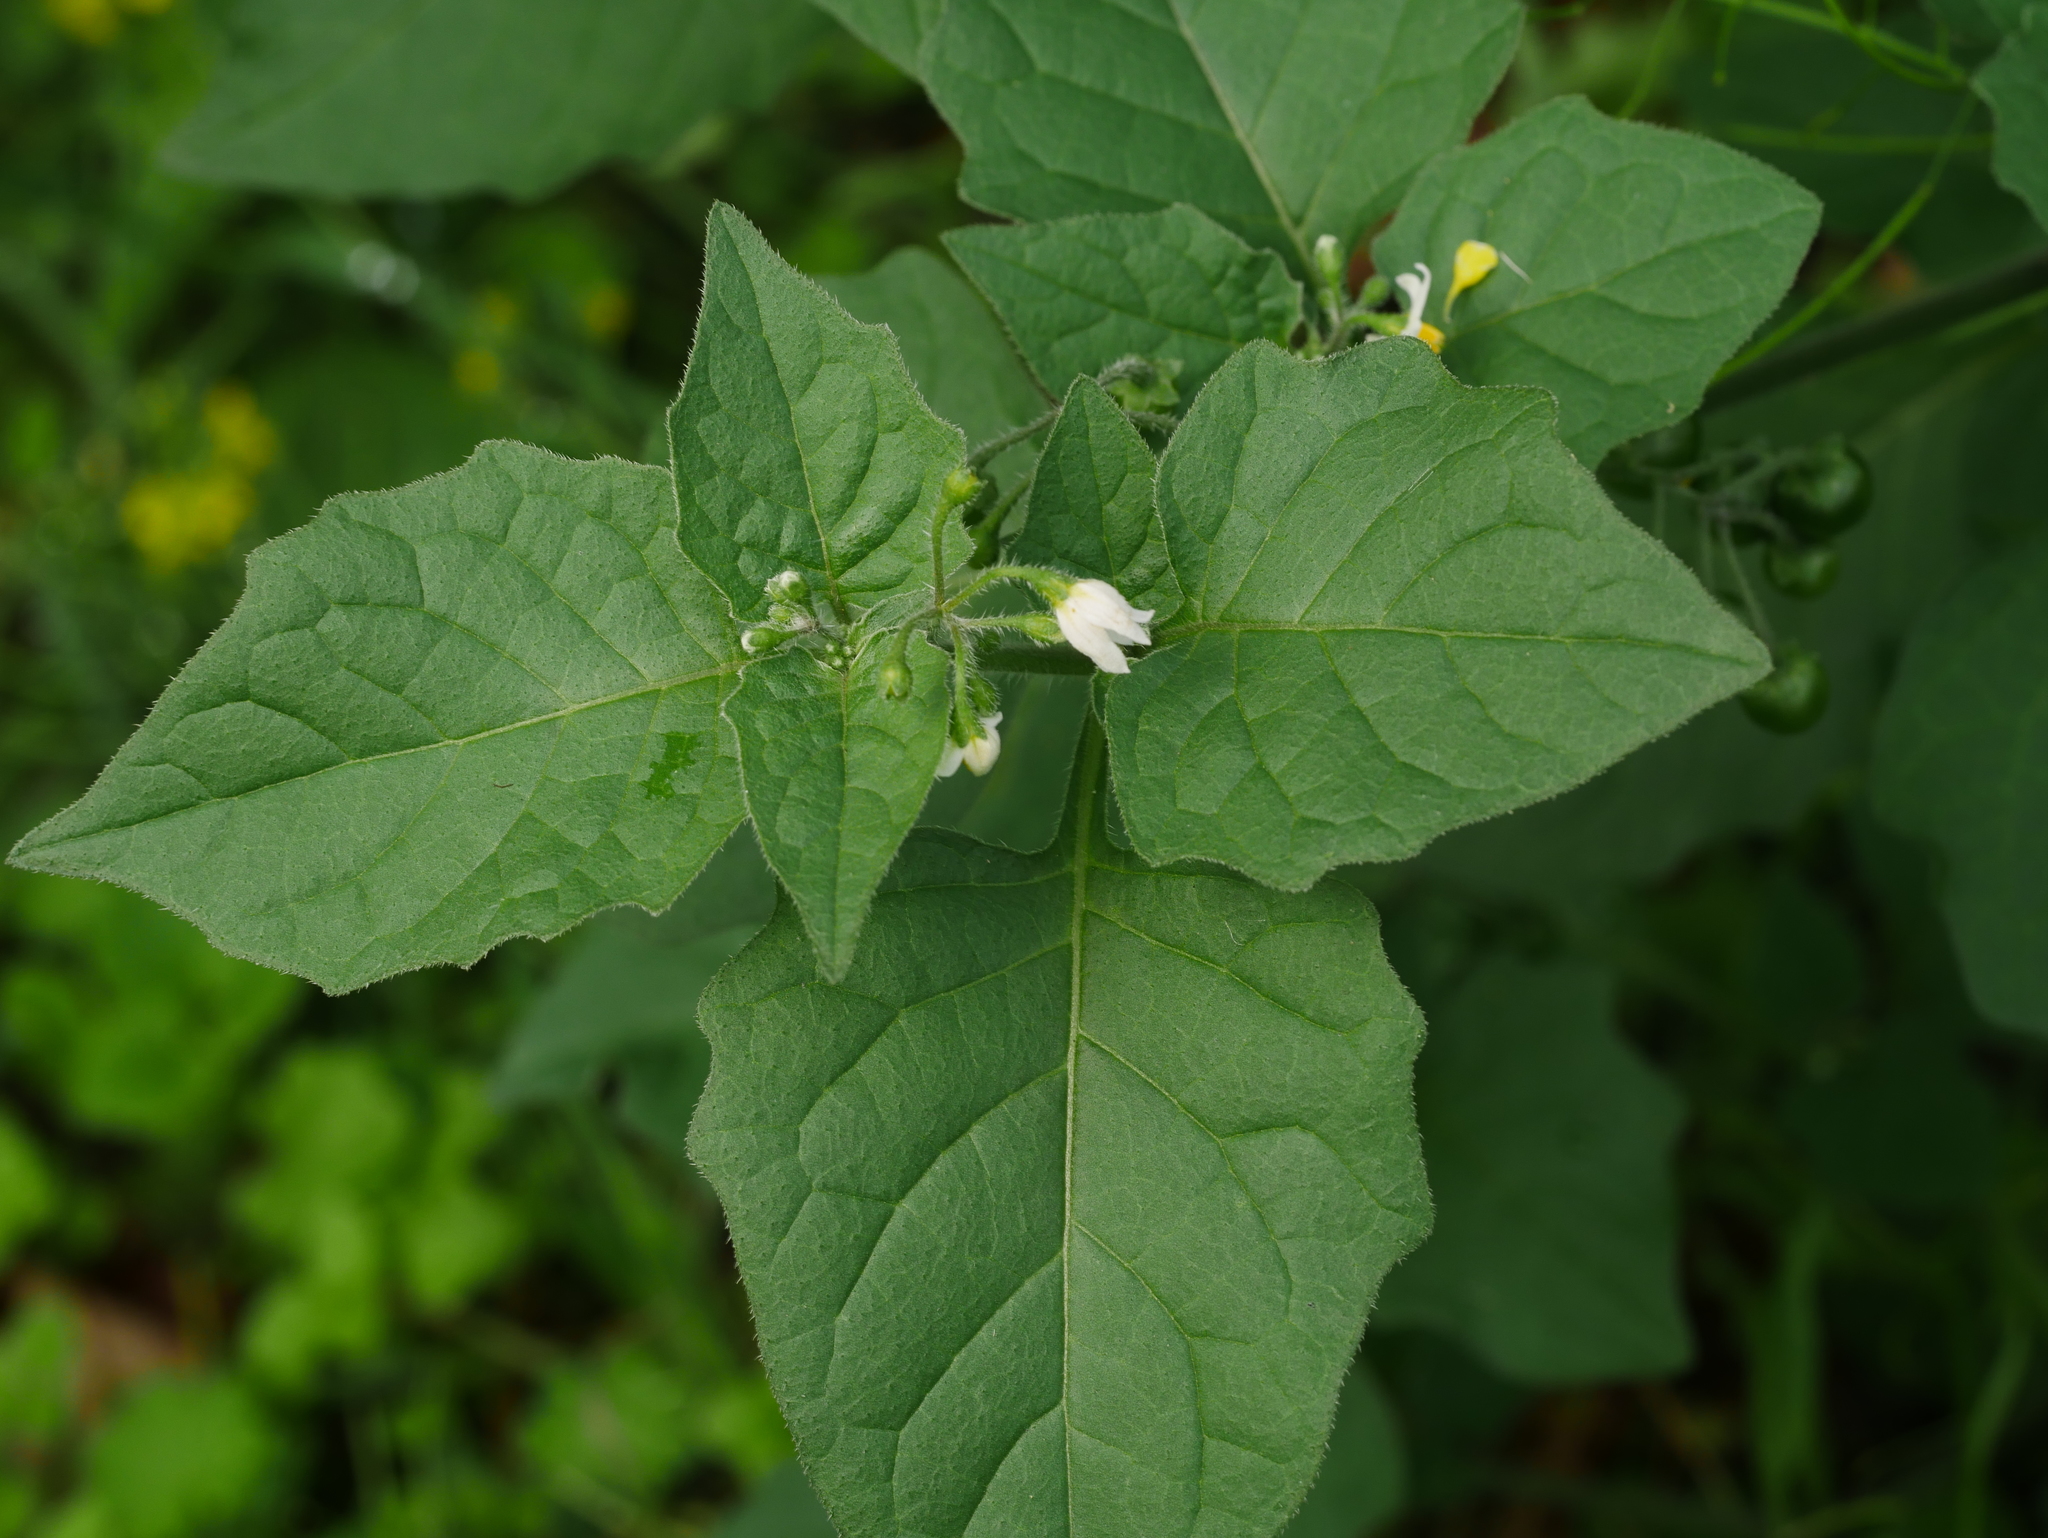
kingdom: Plantae
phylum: Tracheophyta
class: Magnoliopsida
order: Solanales
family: Solanaceae
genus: Solanum
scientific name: Solanum nigrum
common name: Black nightshade
